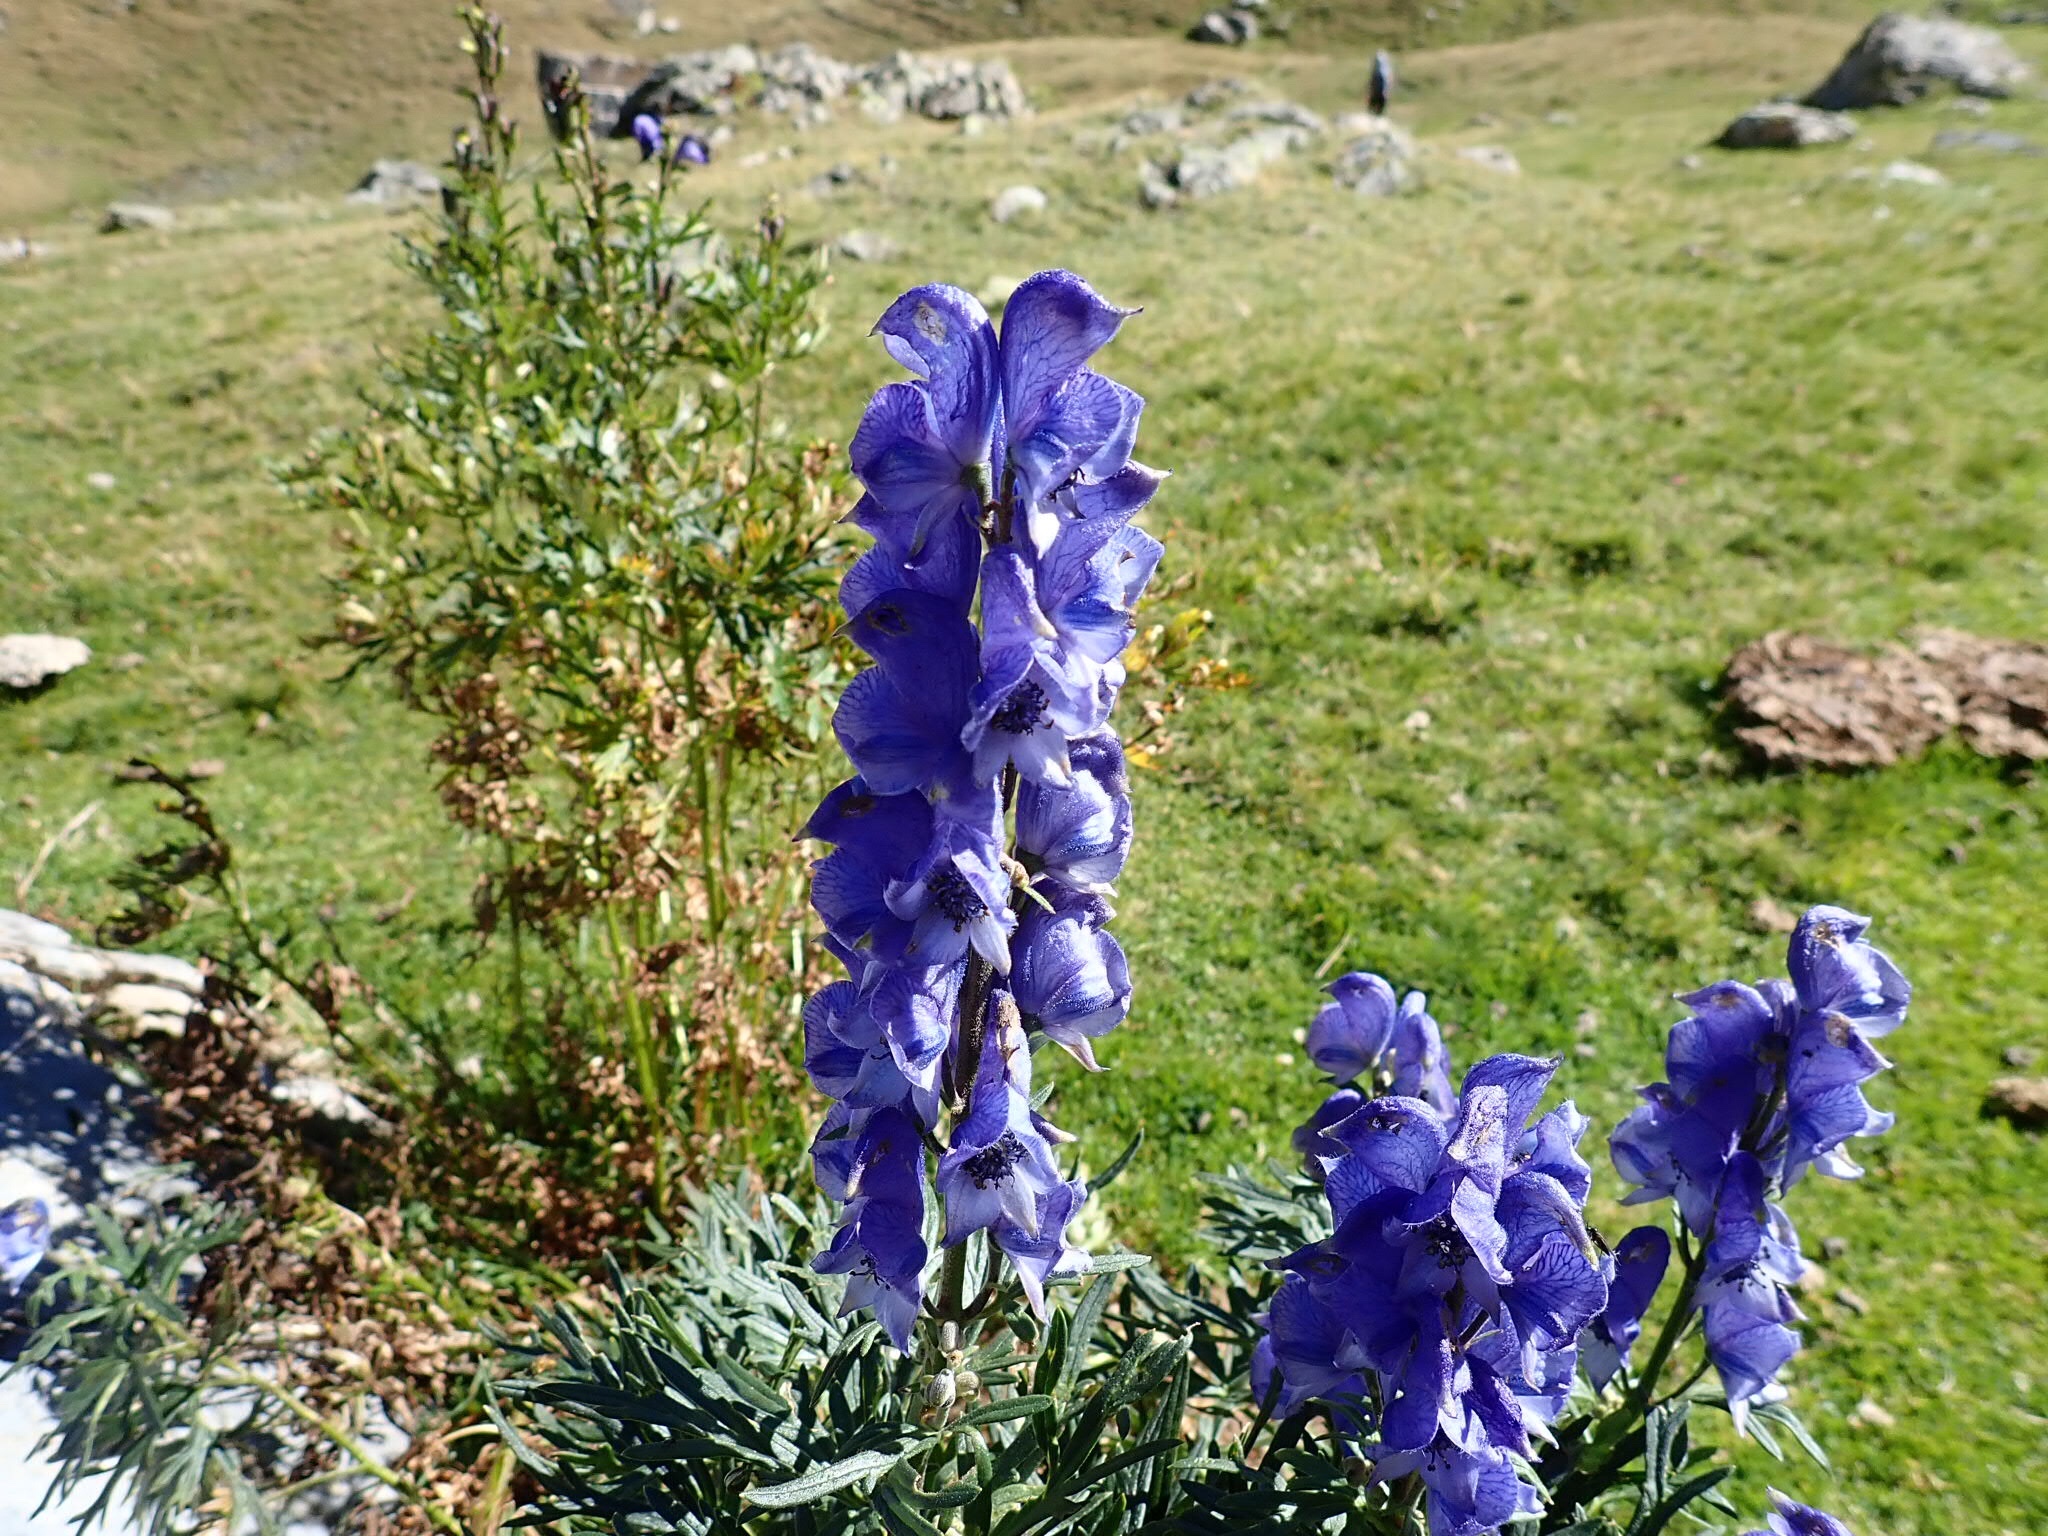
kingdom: Plantae
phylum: Tracheophyta
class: Magnoliopsida
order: Ranunculales
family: Ranunculaceae
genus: Aconitum
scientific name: Aconitum napellus
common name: Garden monkshood
